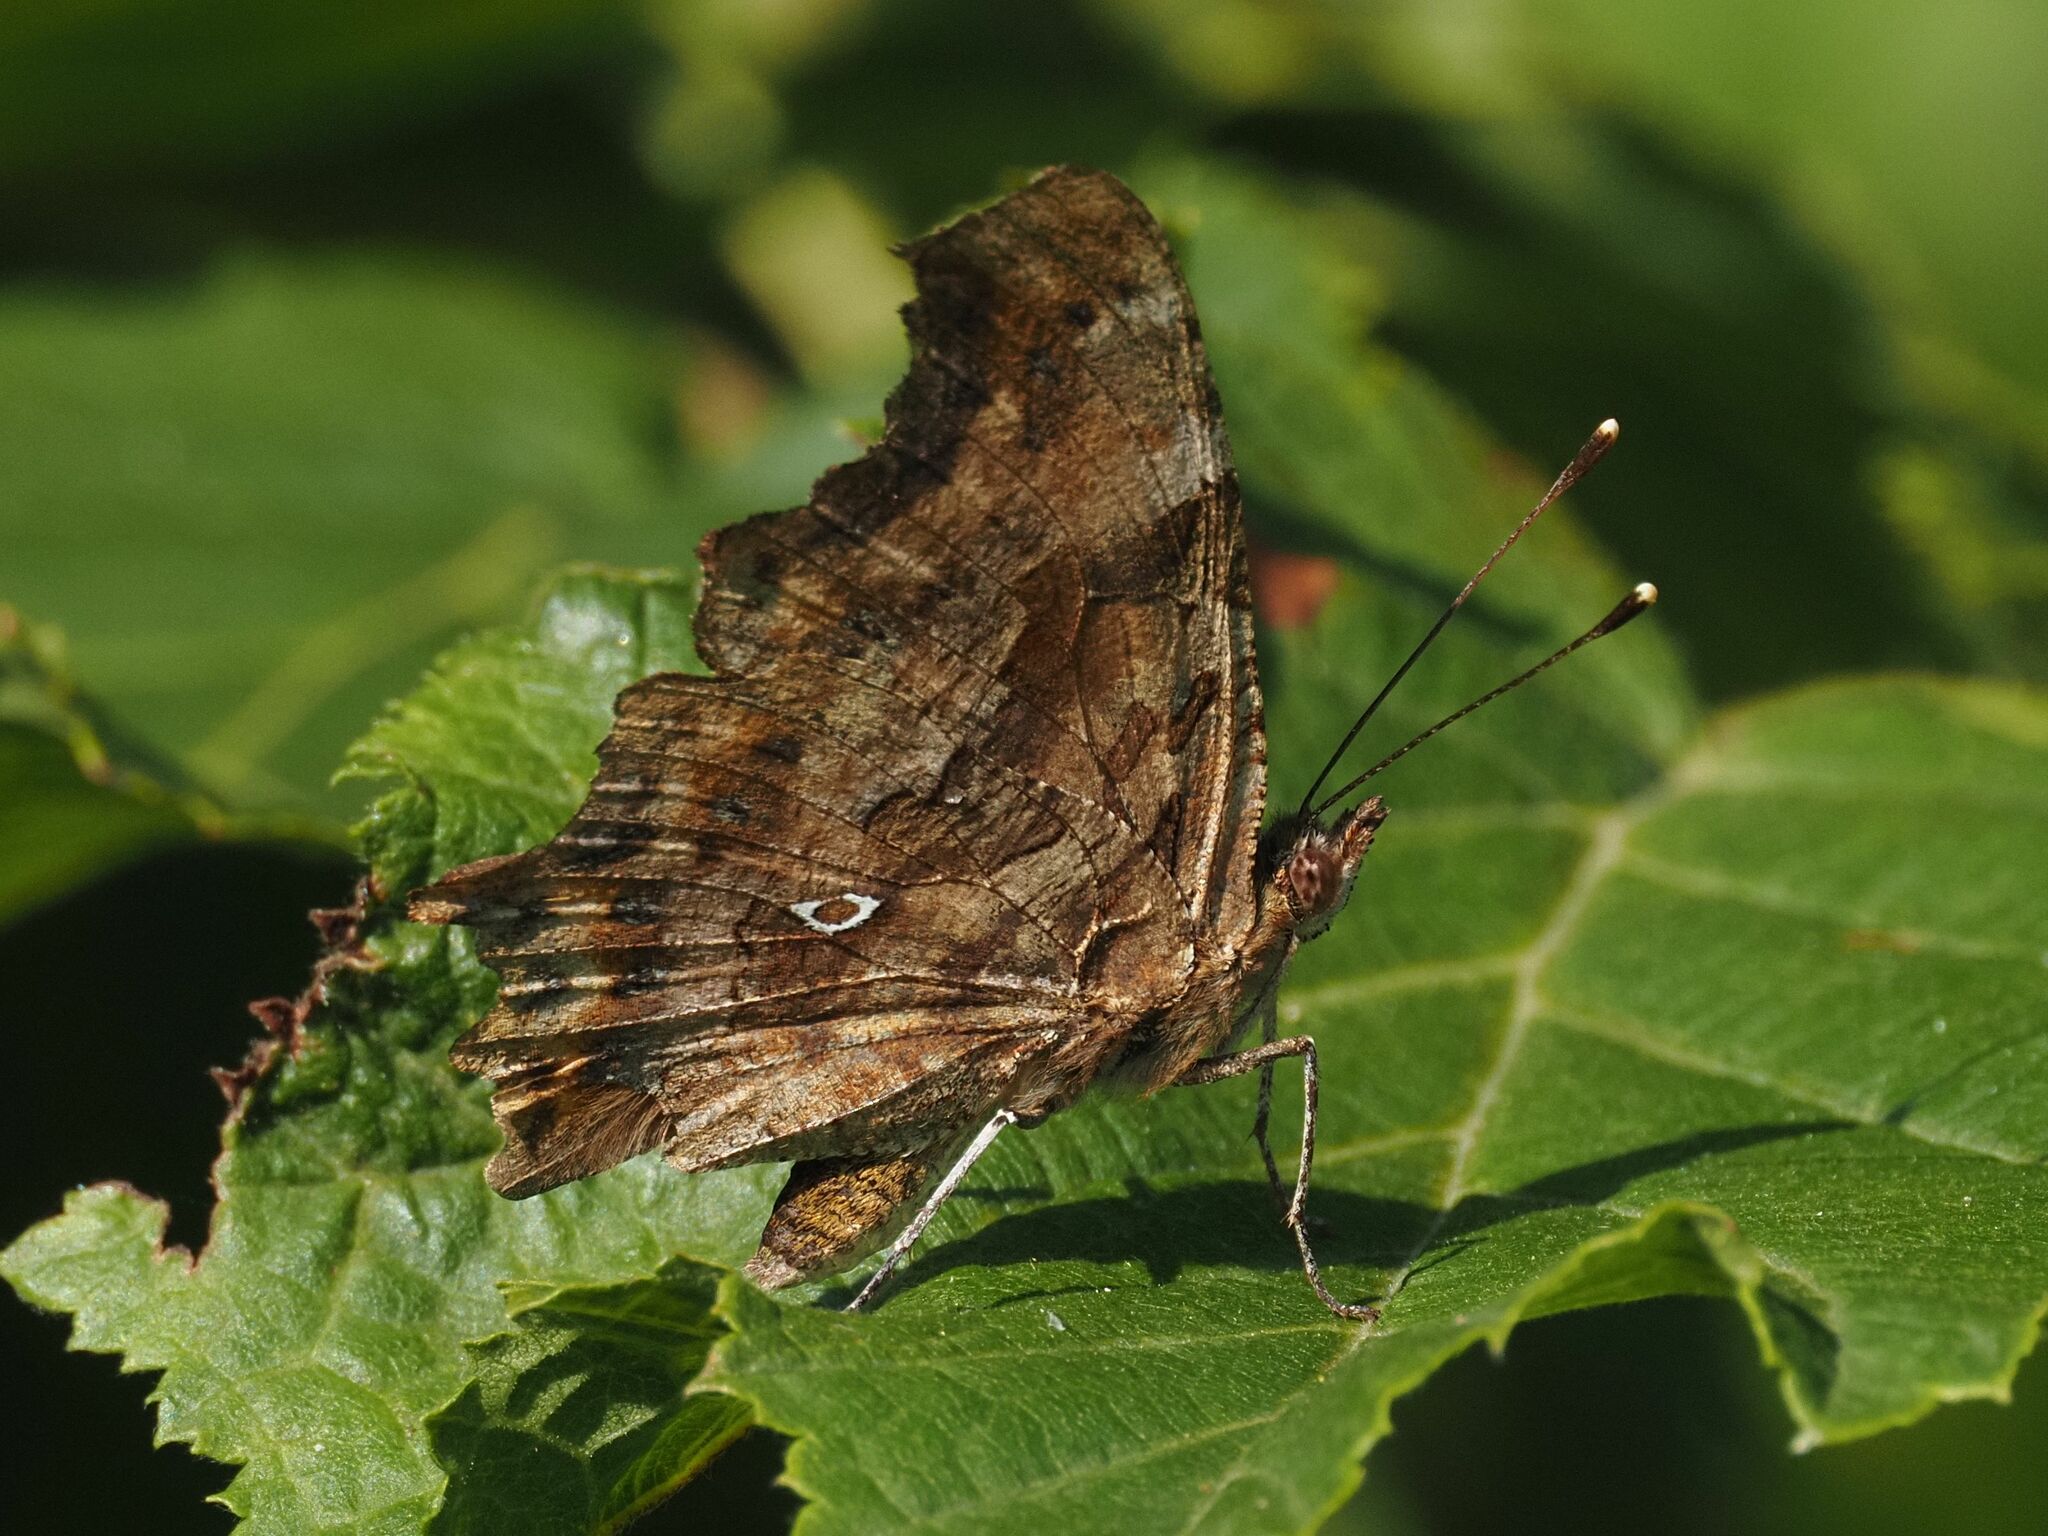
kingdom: Animalia
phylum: Arthropoda
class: Insecta
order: Lepidoptera
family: Nymphalidae
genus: Polygonia
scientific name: Polygonia c-album
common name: Comma
